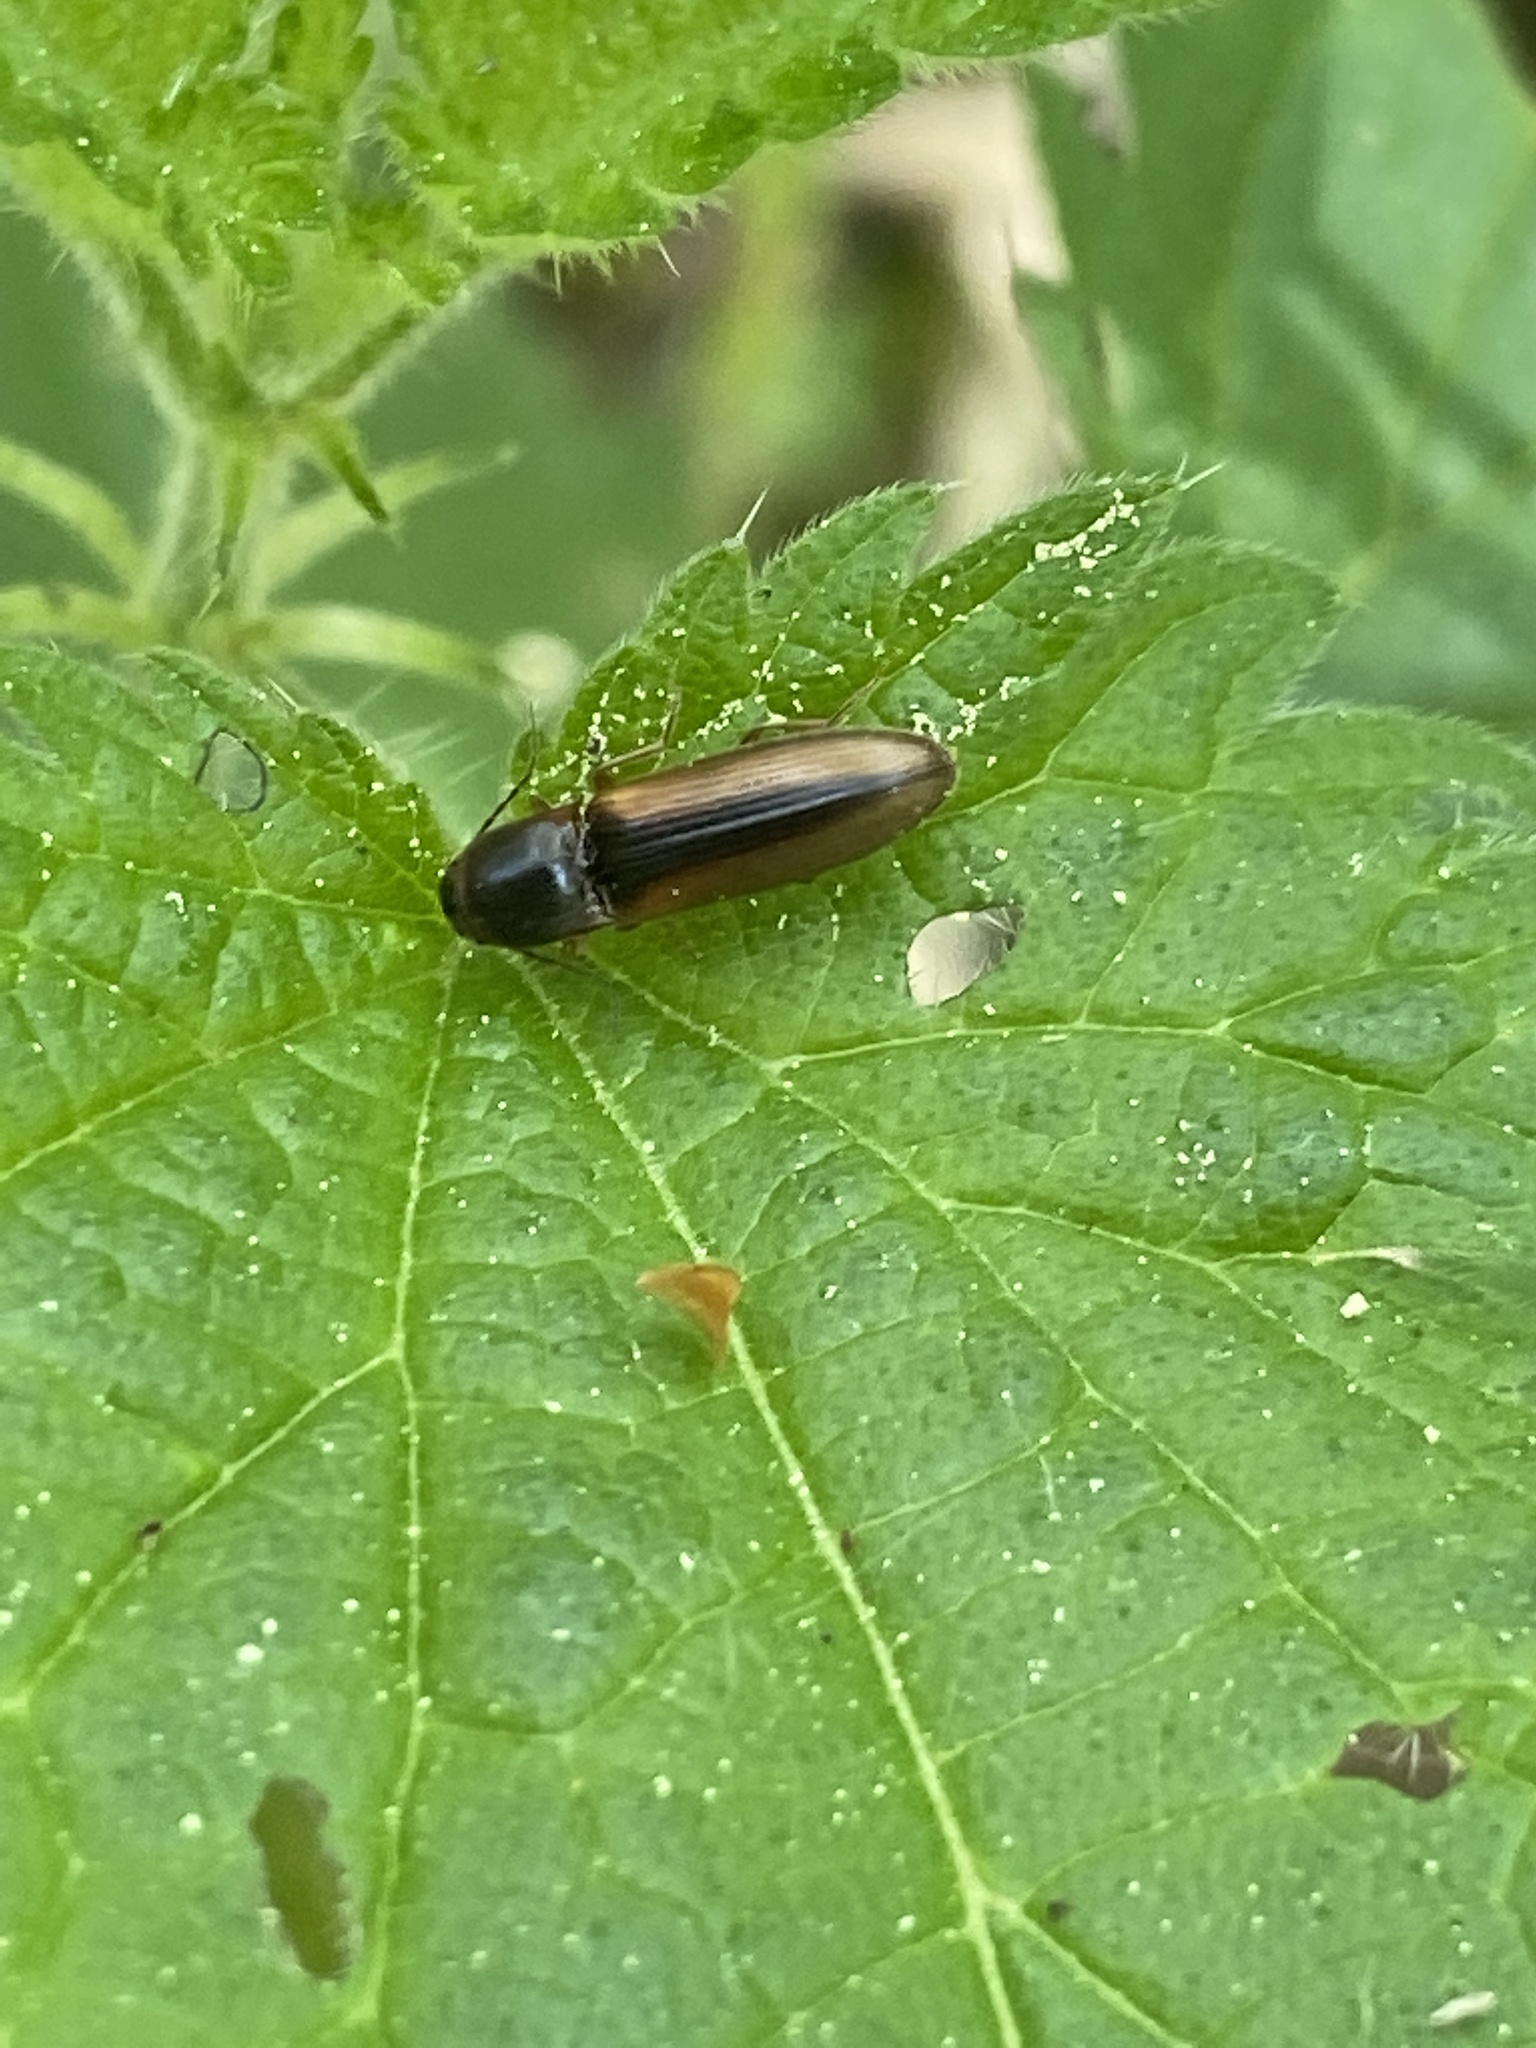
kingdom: Animalia
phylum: Arthropoda
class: Insecta
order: Coleoptera
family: Elateridae
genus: Dalopius
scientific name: Dalopius marginatus
